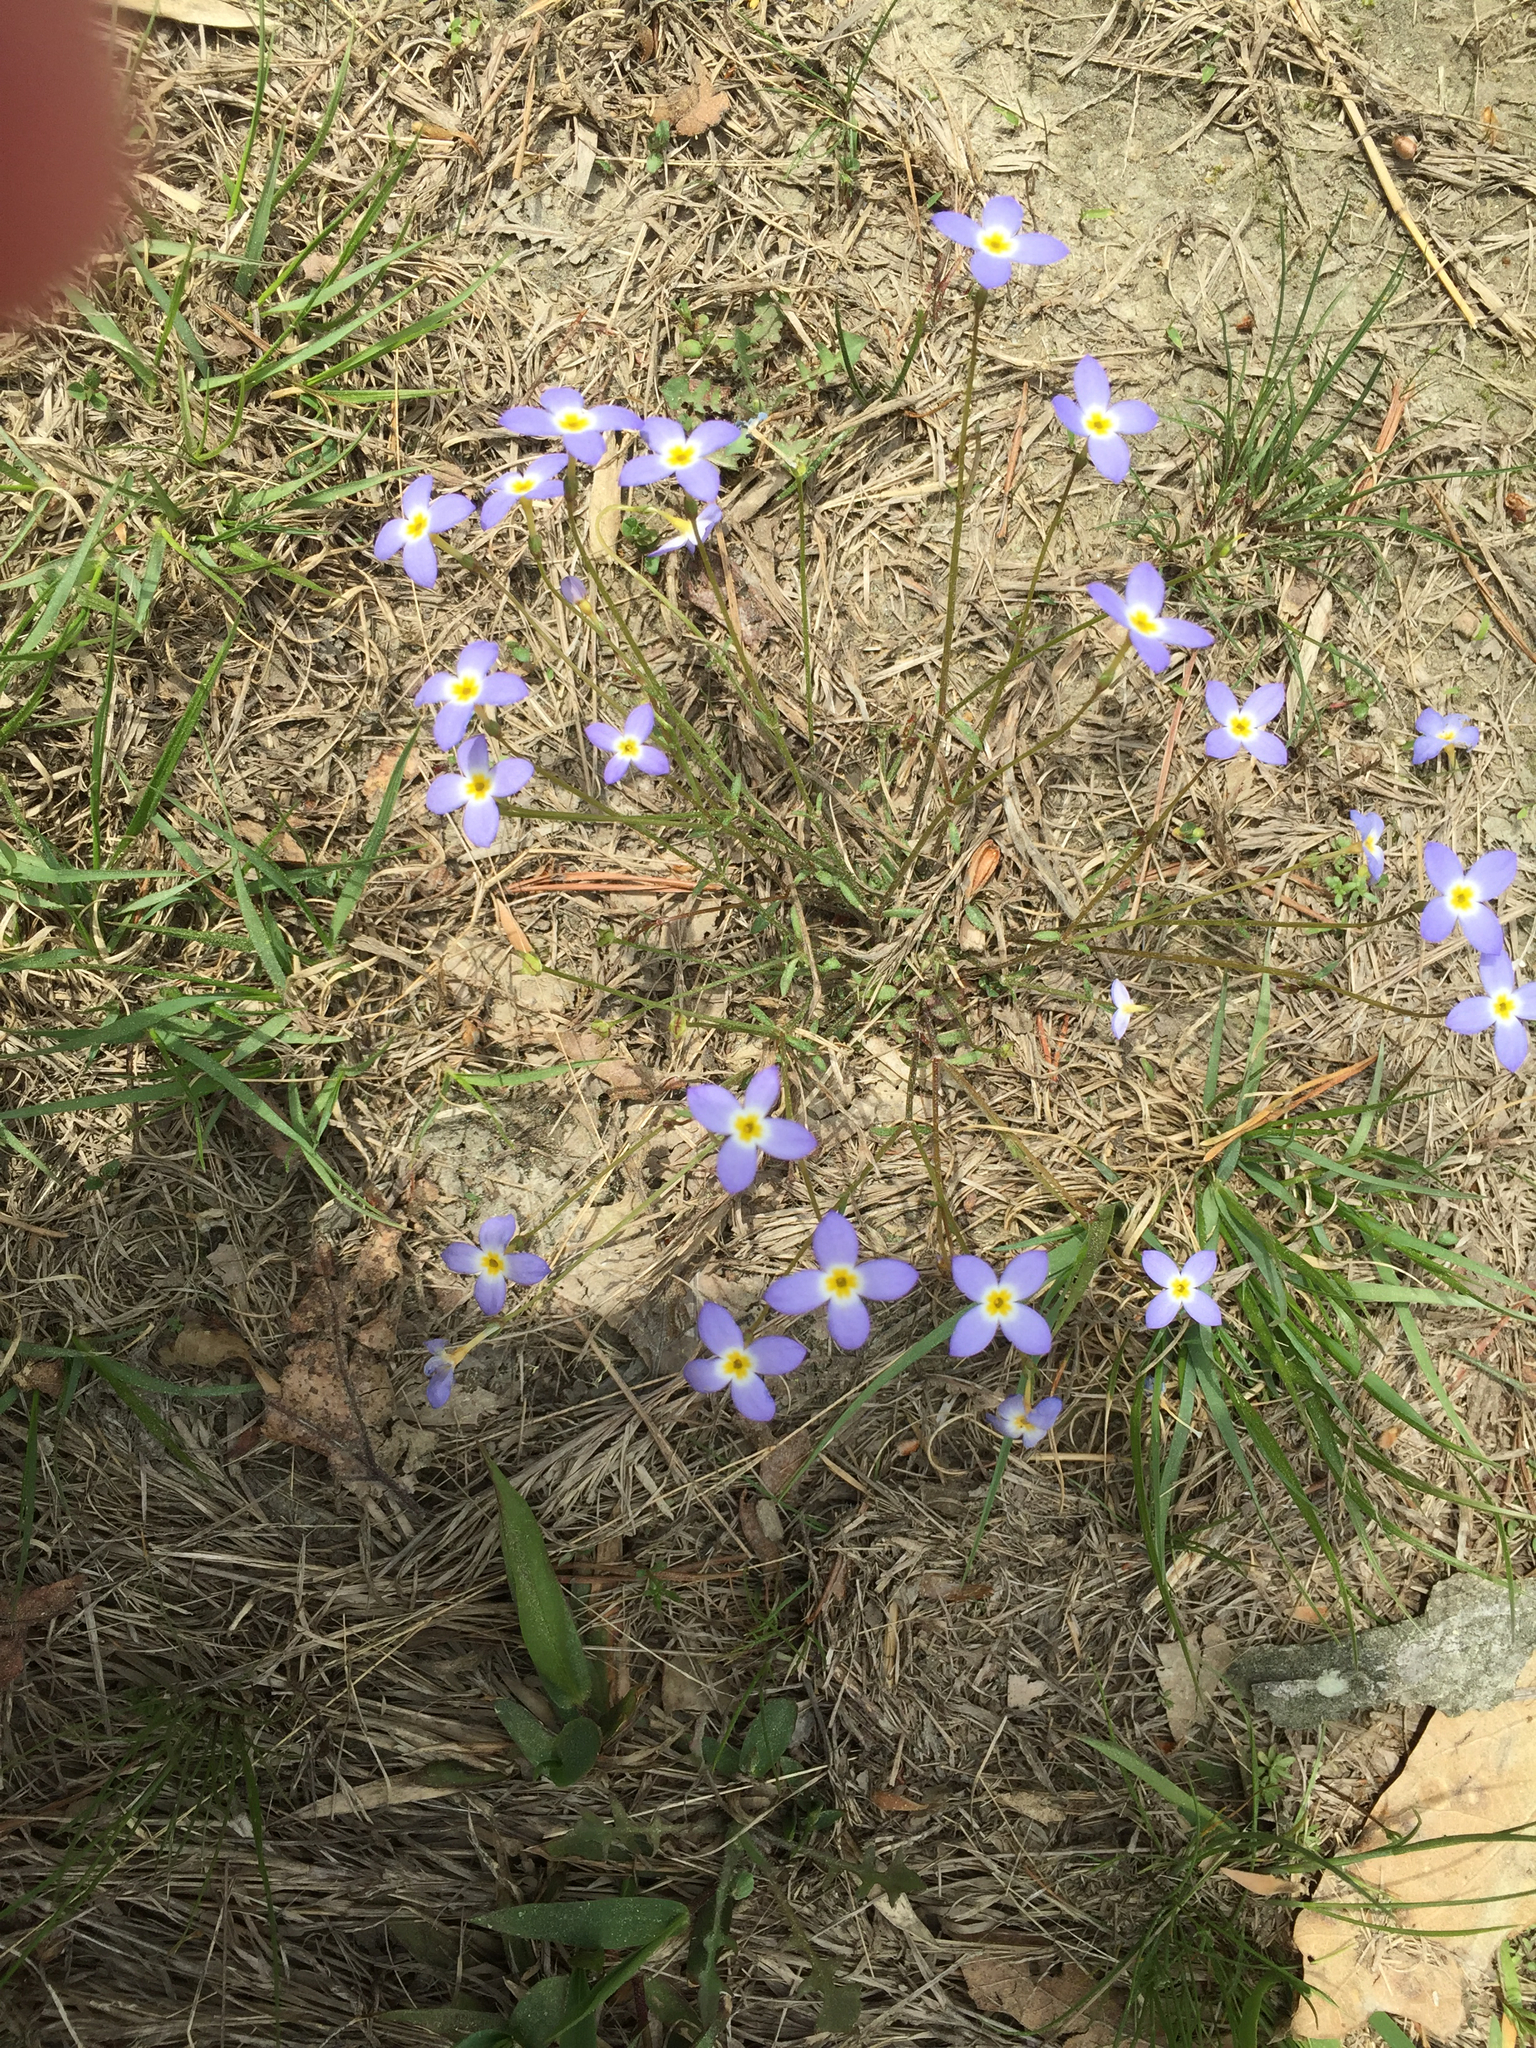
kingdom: Plantae
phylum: Tracheophyta
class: Magnoliopsida
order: Gentianales
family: Rubiaceae
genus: Houstonia
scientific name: Houstonia caerulea
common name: Bluets
